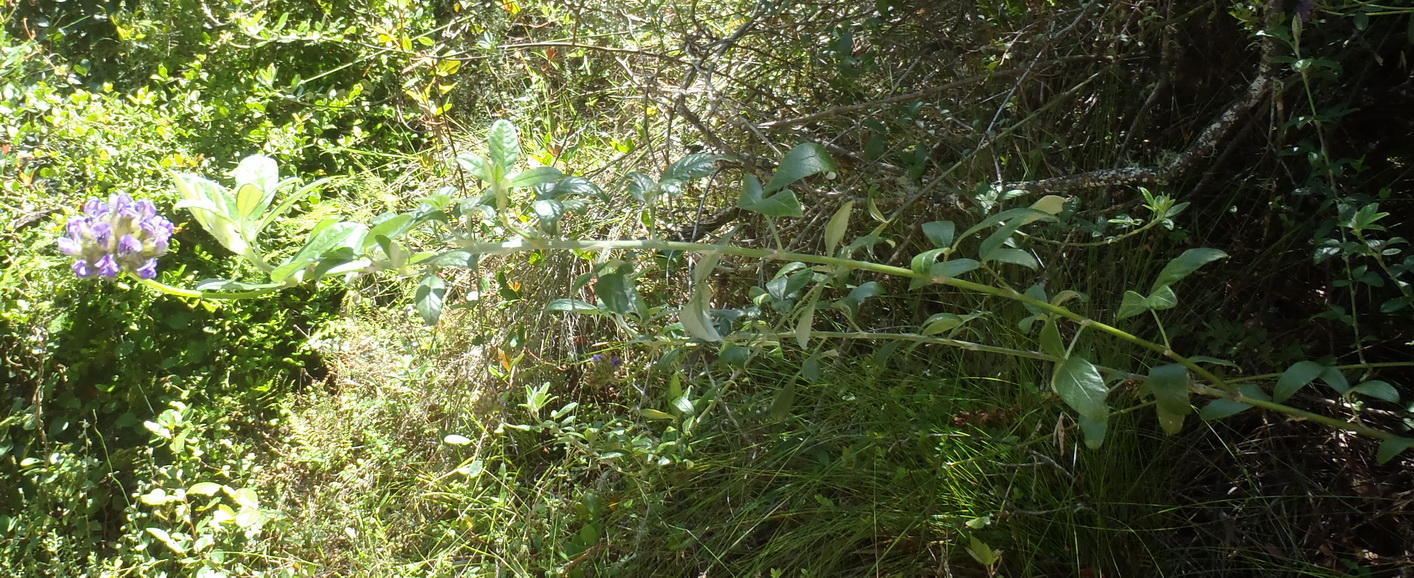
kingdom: Plantae
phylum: Tracheophyta
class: Magnoliopsida
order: Fabales
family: Fabaceae
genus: Psoralea
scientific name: Psoralea sericea
